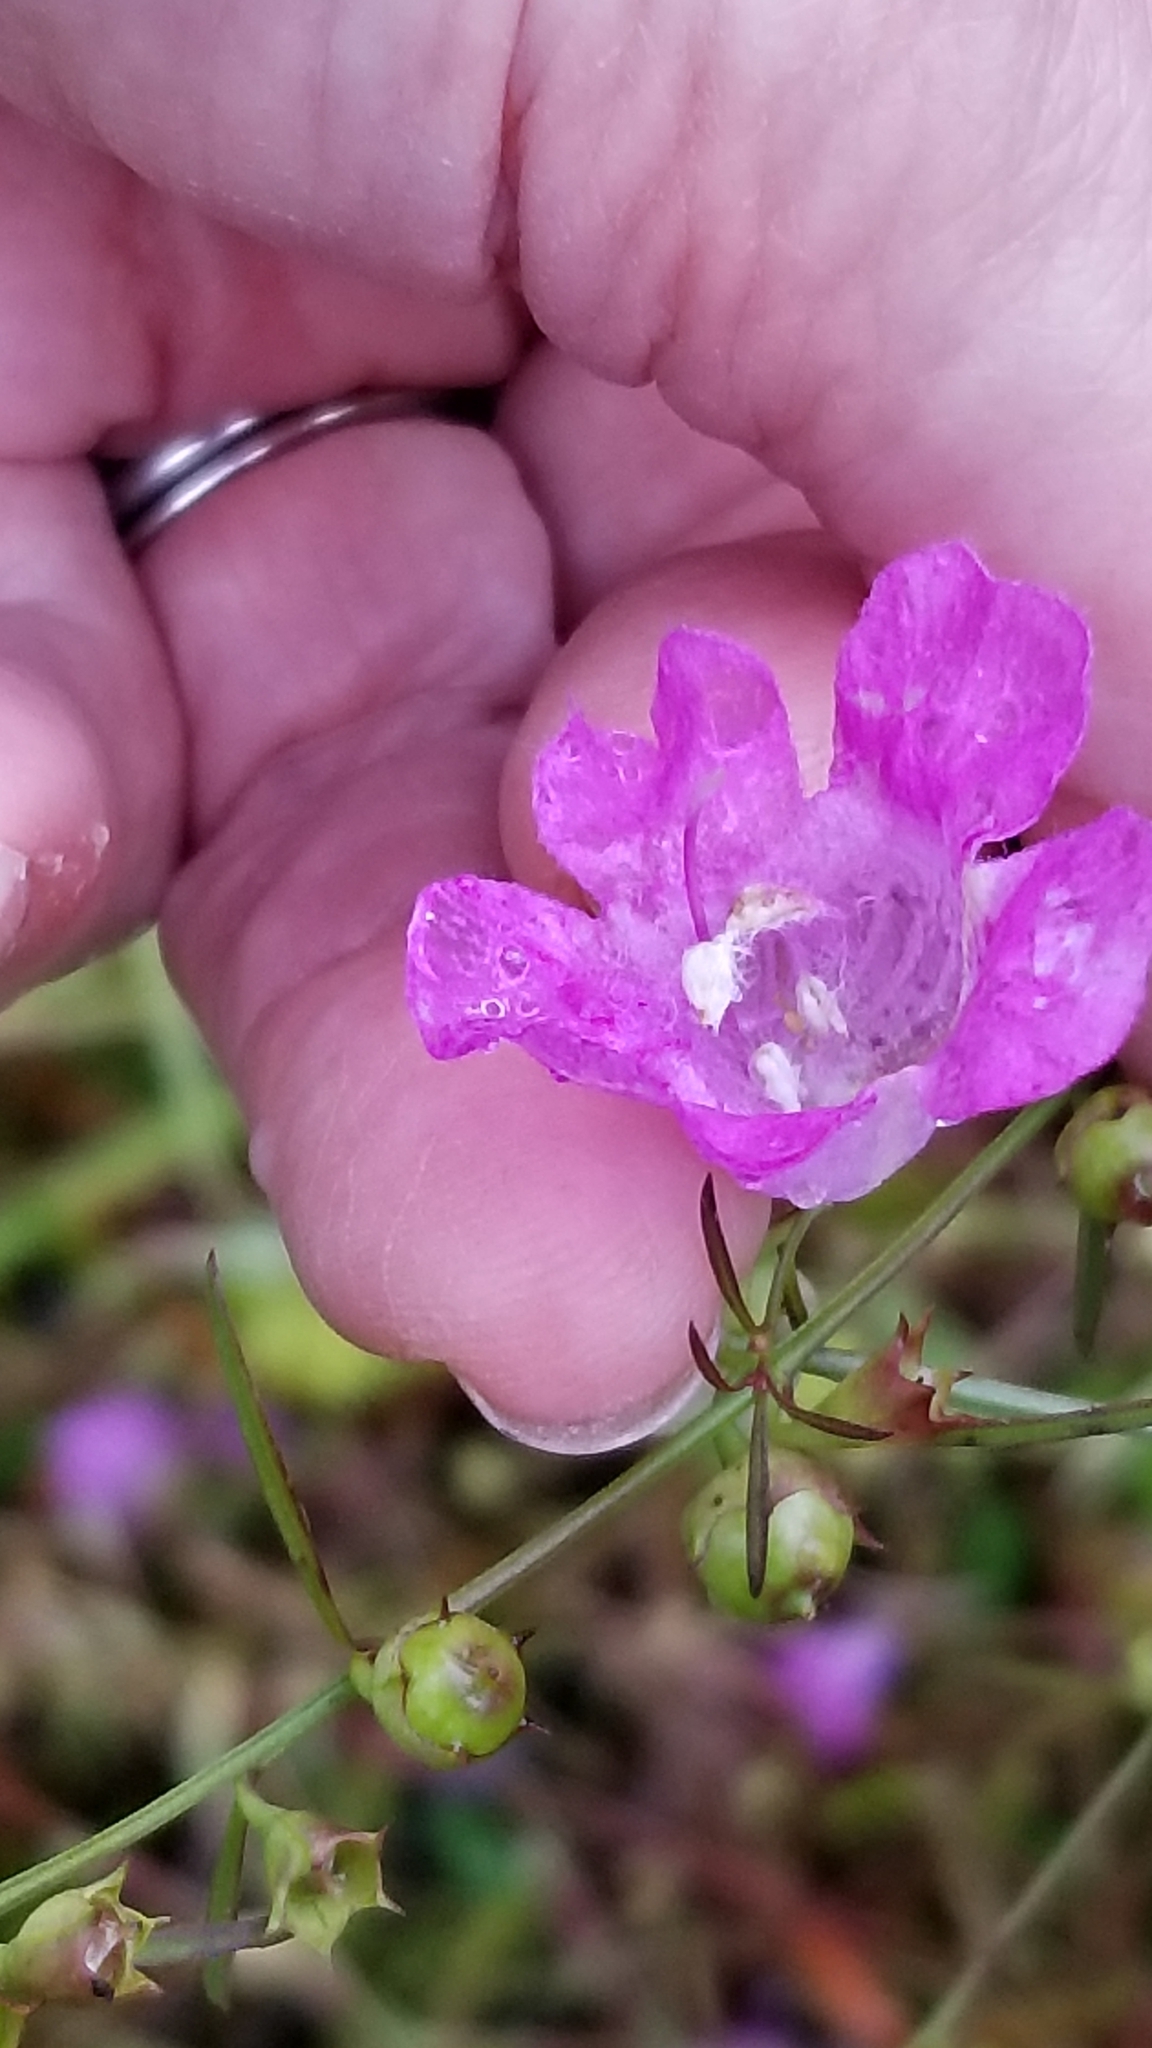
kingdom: Plantae
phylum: Tracheophyta
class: Magnoliopsida
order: Lamiales
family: Orobanchaceae
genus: Agalinis
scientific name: Agalinis purpurea
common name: Purple false foxglove
